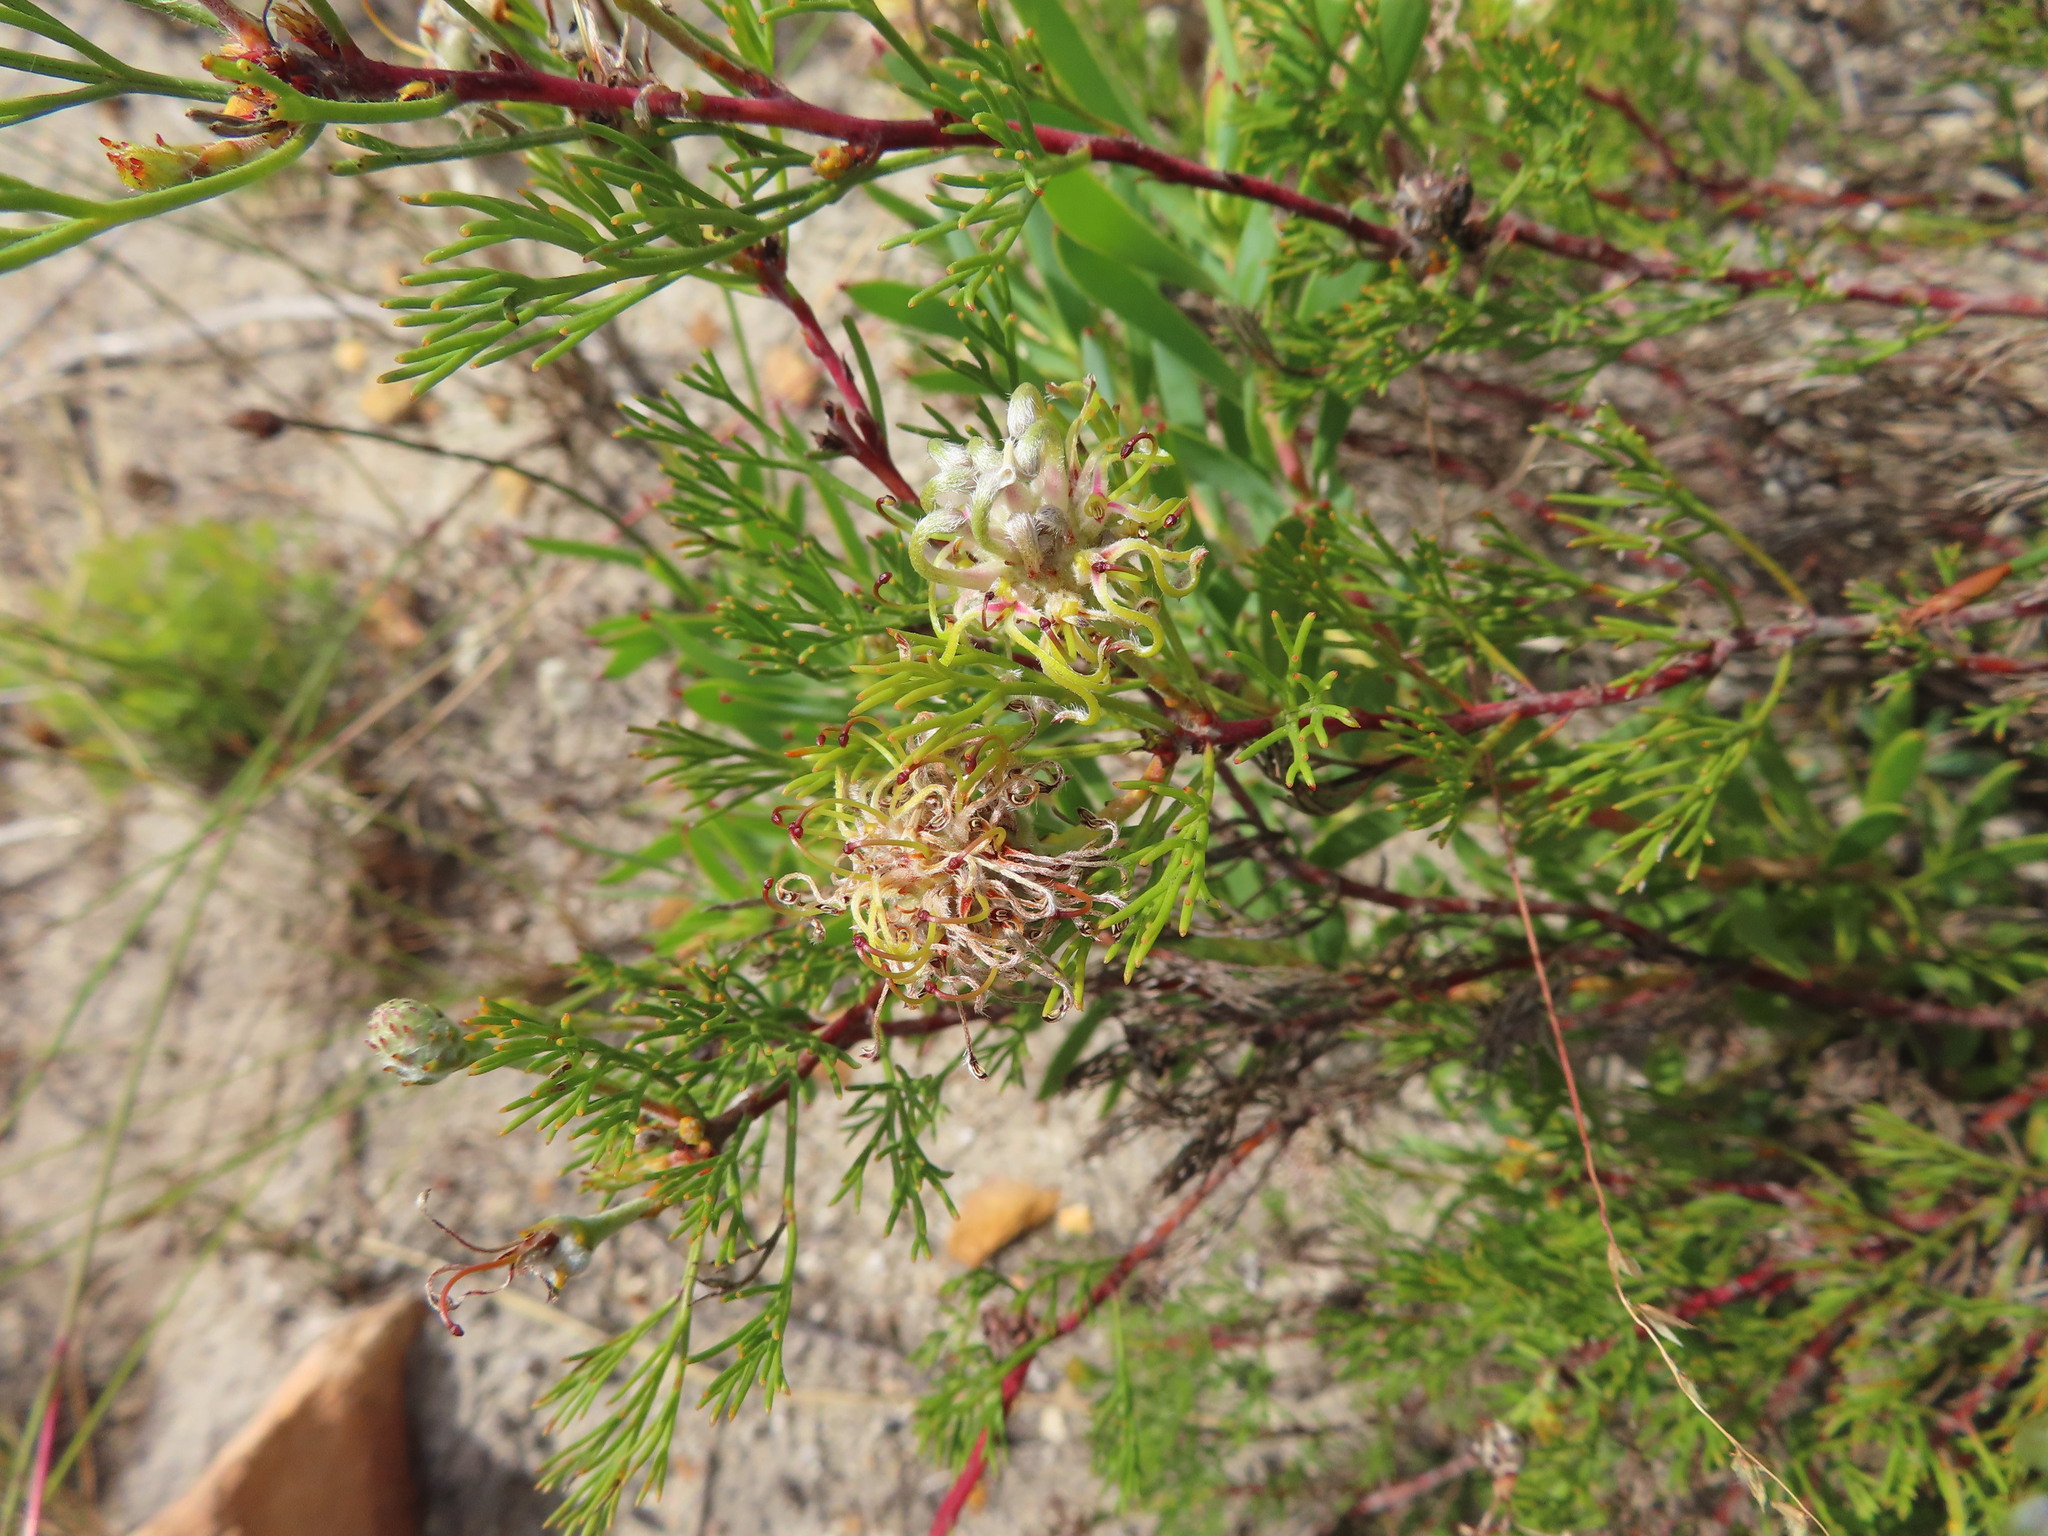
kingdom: Plantae
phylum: Tracheophyta
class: Magnoliopsida
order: Proteales
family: Proteaceae
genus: Serruria
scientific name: Serruria
